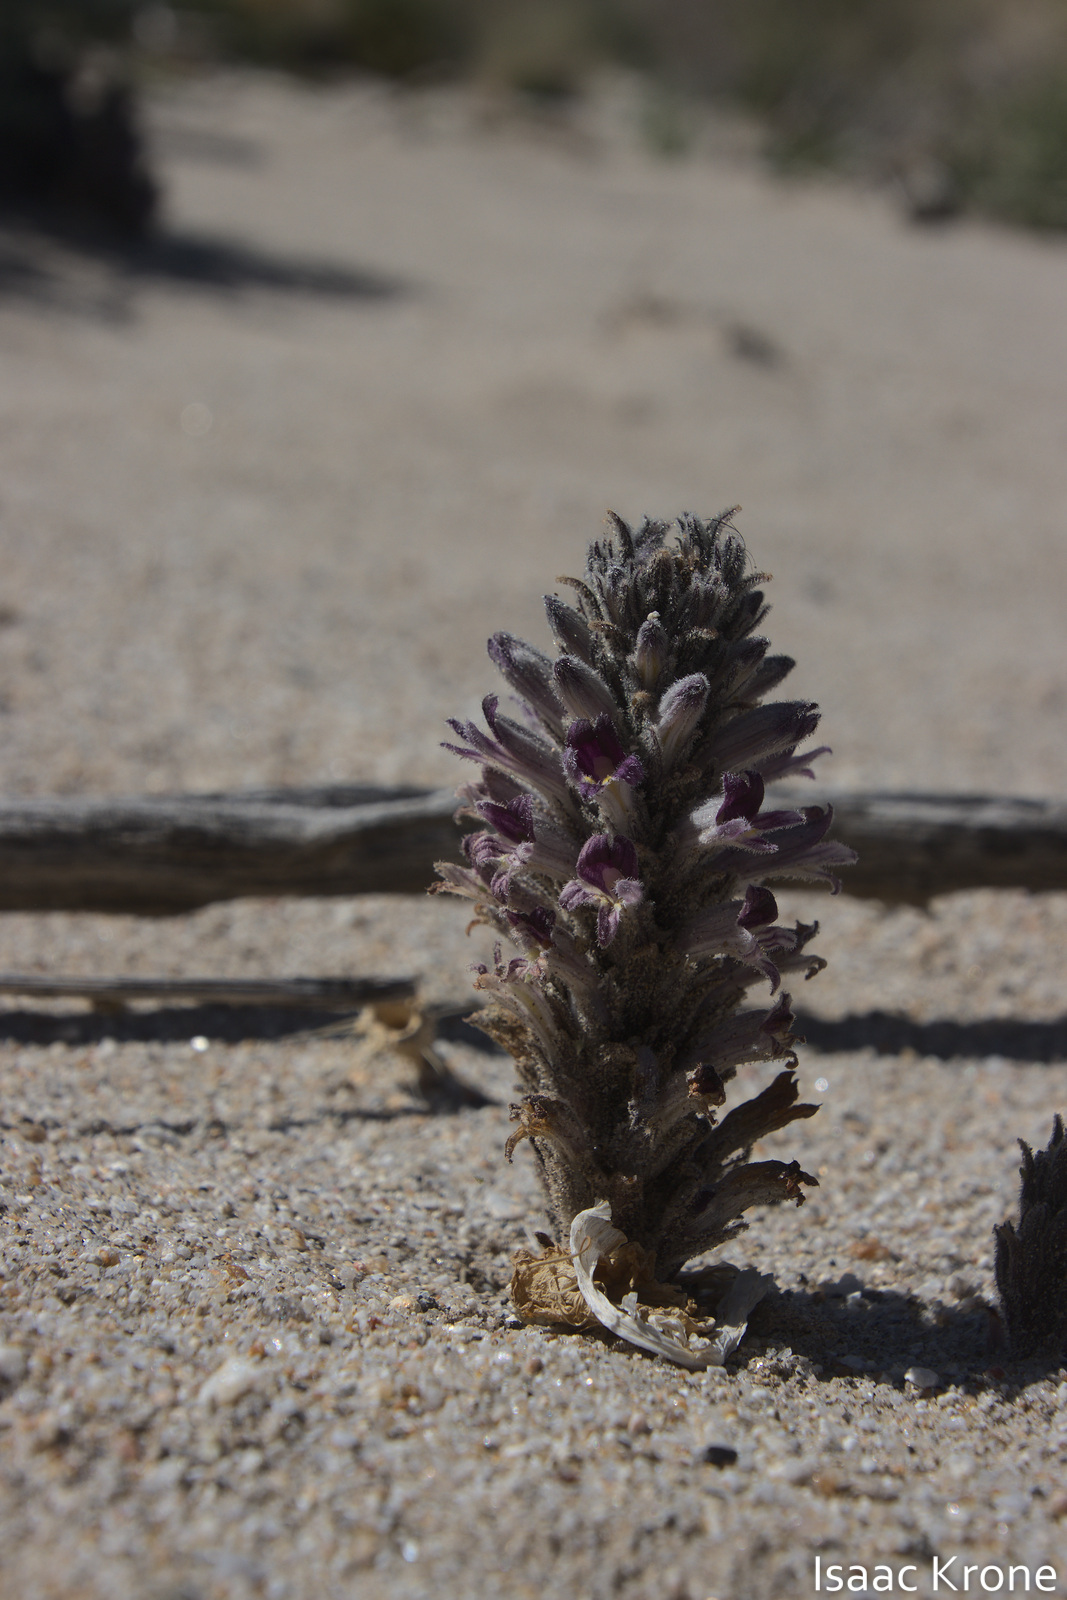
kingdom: Plantae
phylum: Tracheophyta
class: Magnoliopsida
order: Lamiales
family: Orobanchaceae
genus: Aphyllon
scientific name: Aphyllon cooperi
